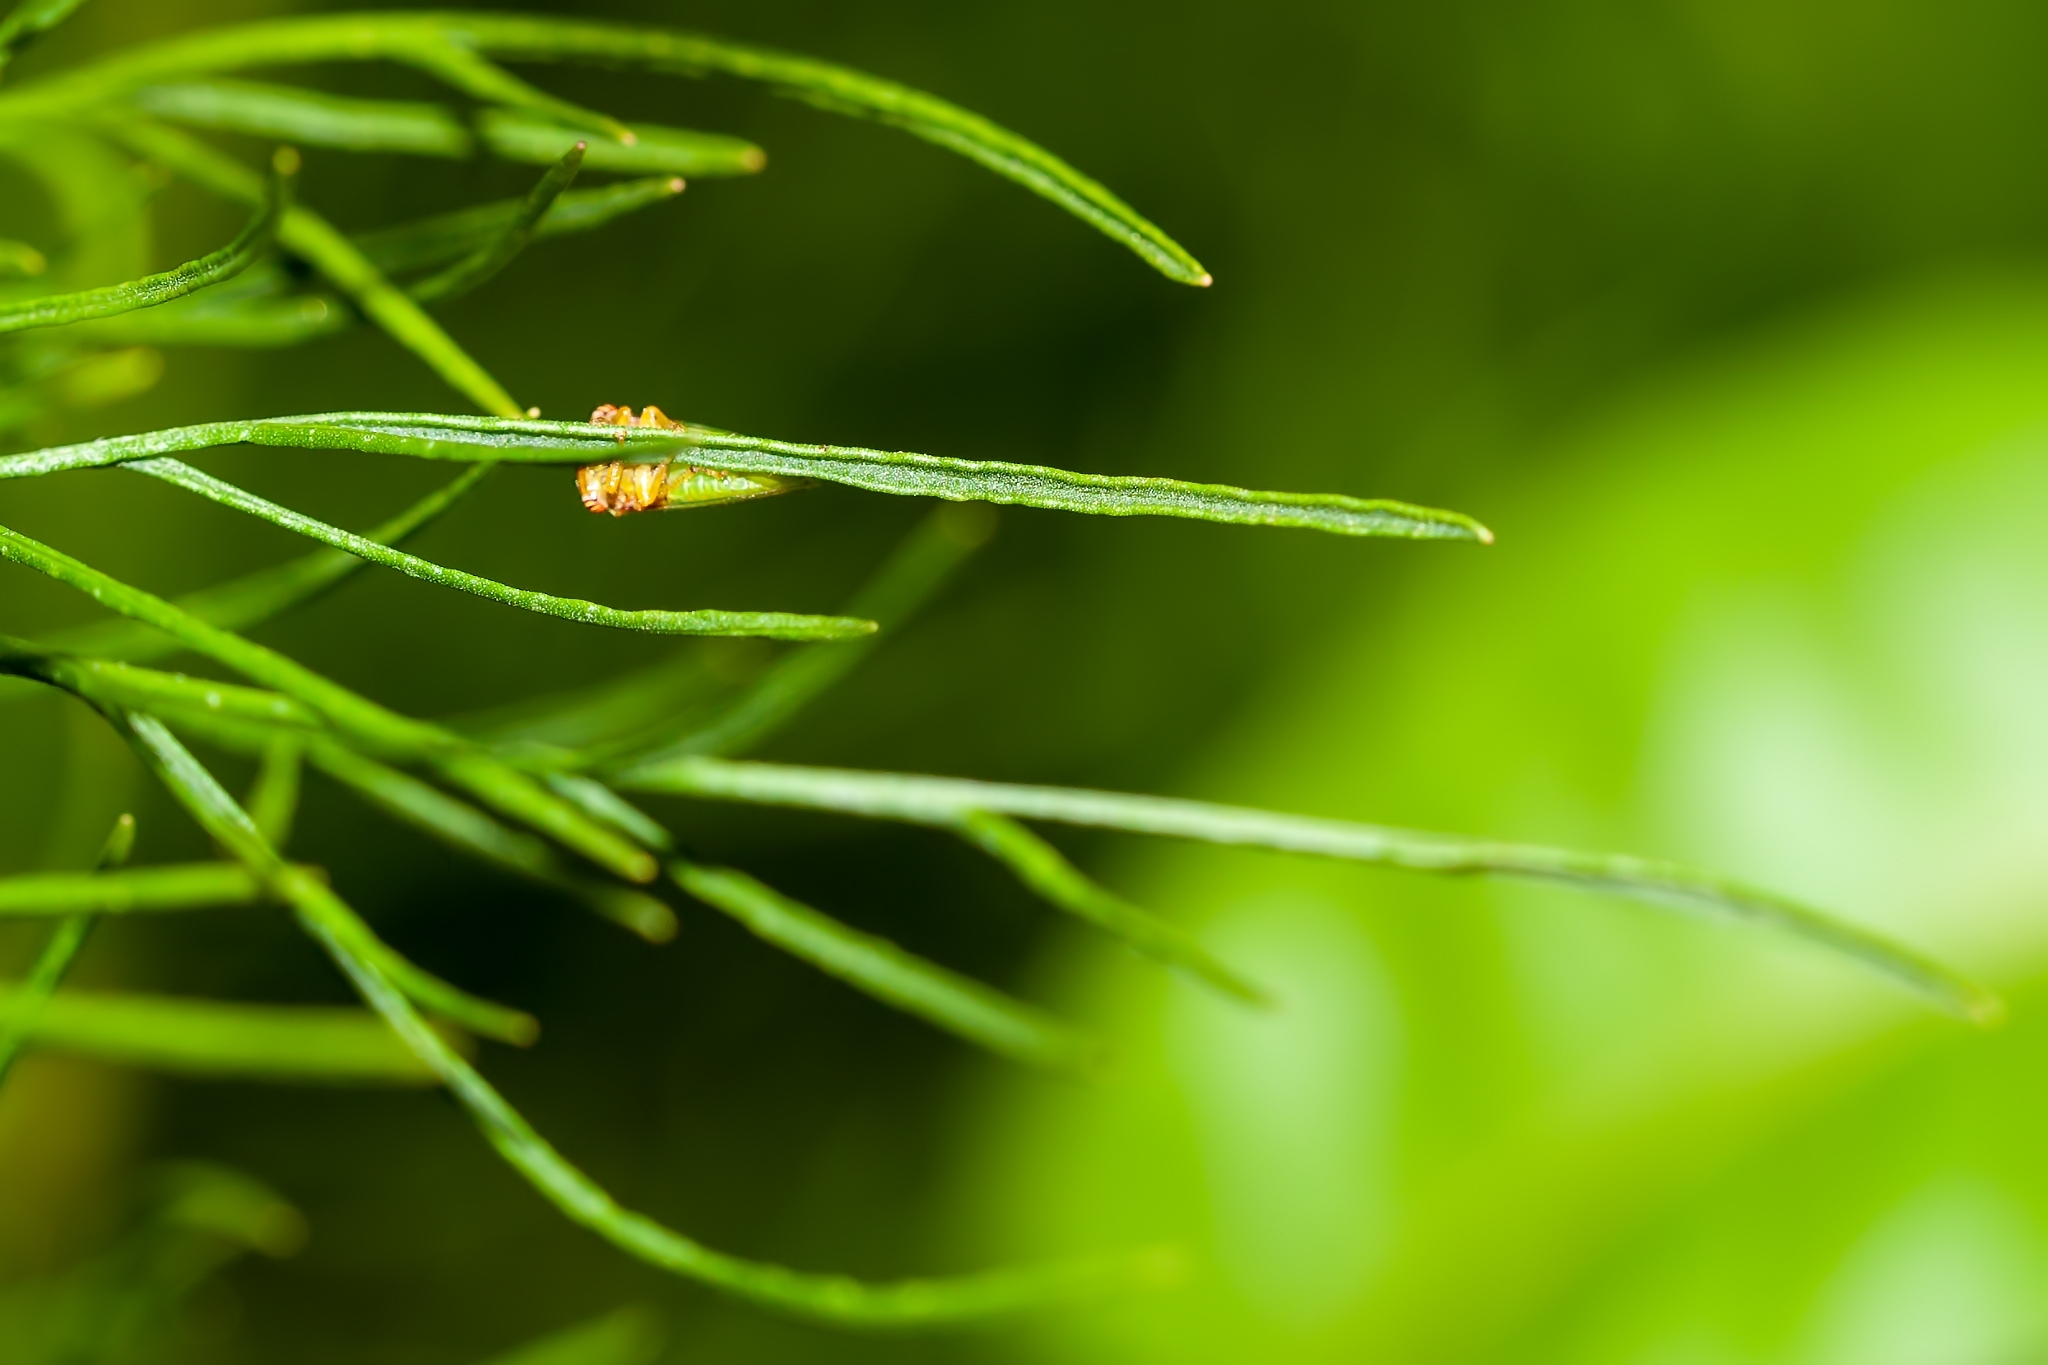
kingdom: Animalia
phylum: Arthropoda
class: Insecta
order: Hemiptera
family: Membracidae
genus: Idioderma
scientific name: Idioderma virescens
